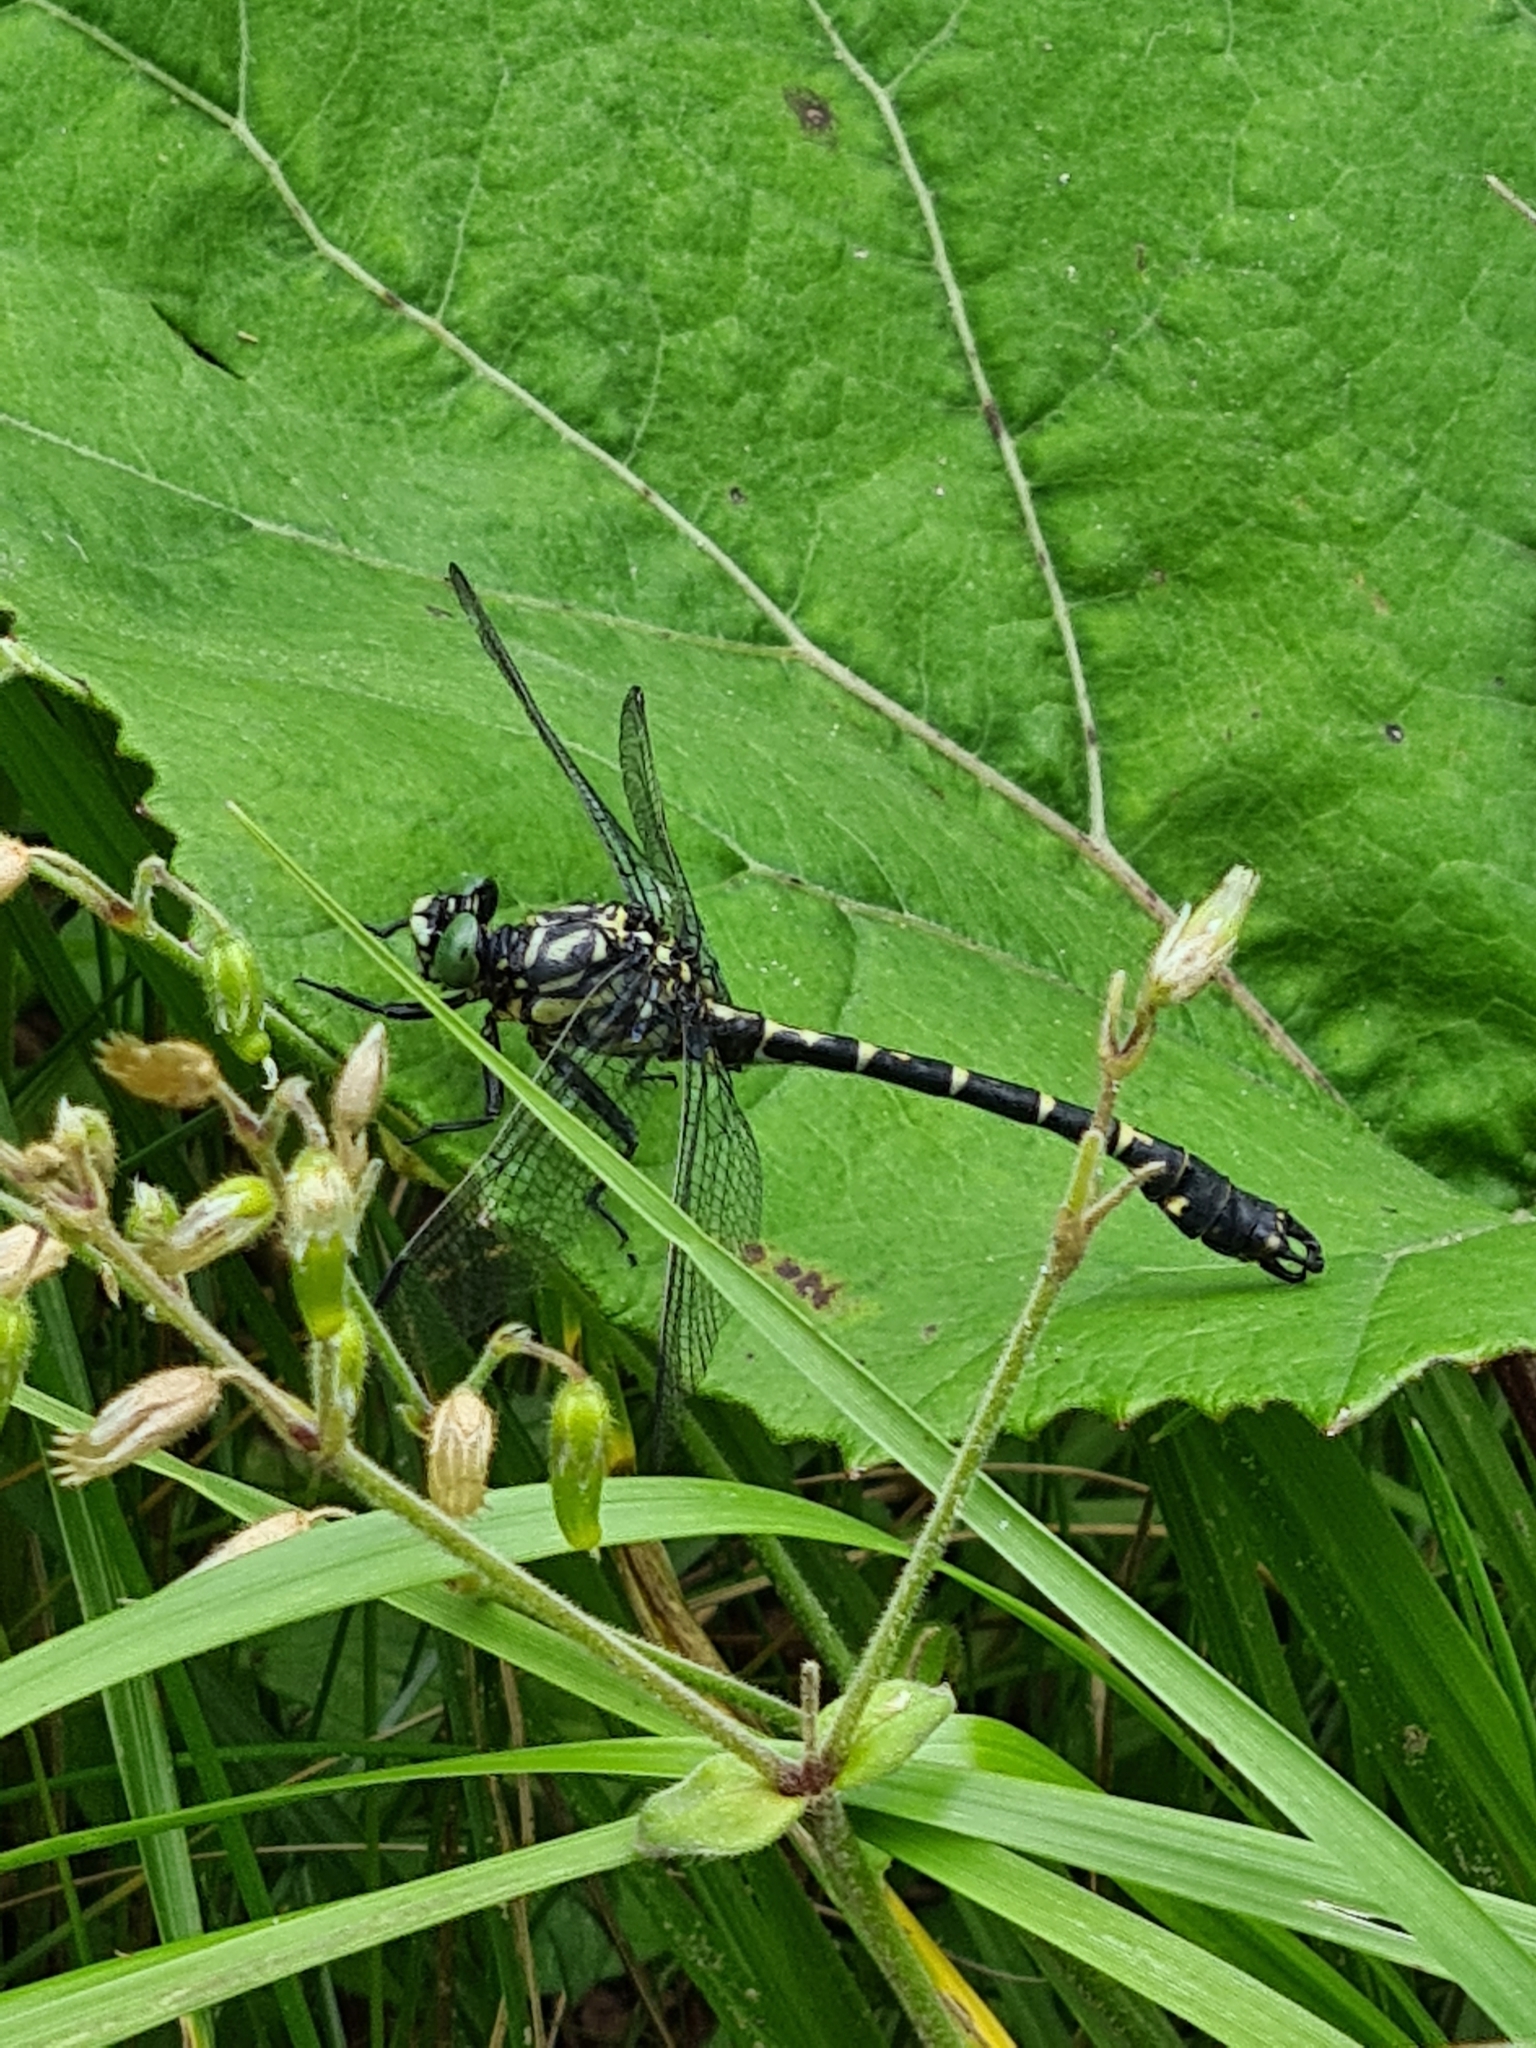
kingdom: Animalia
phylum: Arthropoda
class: Insecta
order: Odonata
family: Gomphidae
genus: Onychogomphus
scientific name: Onychogomphus forcipatus
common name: Small pincertail
